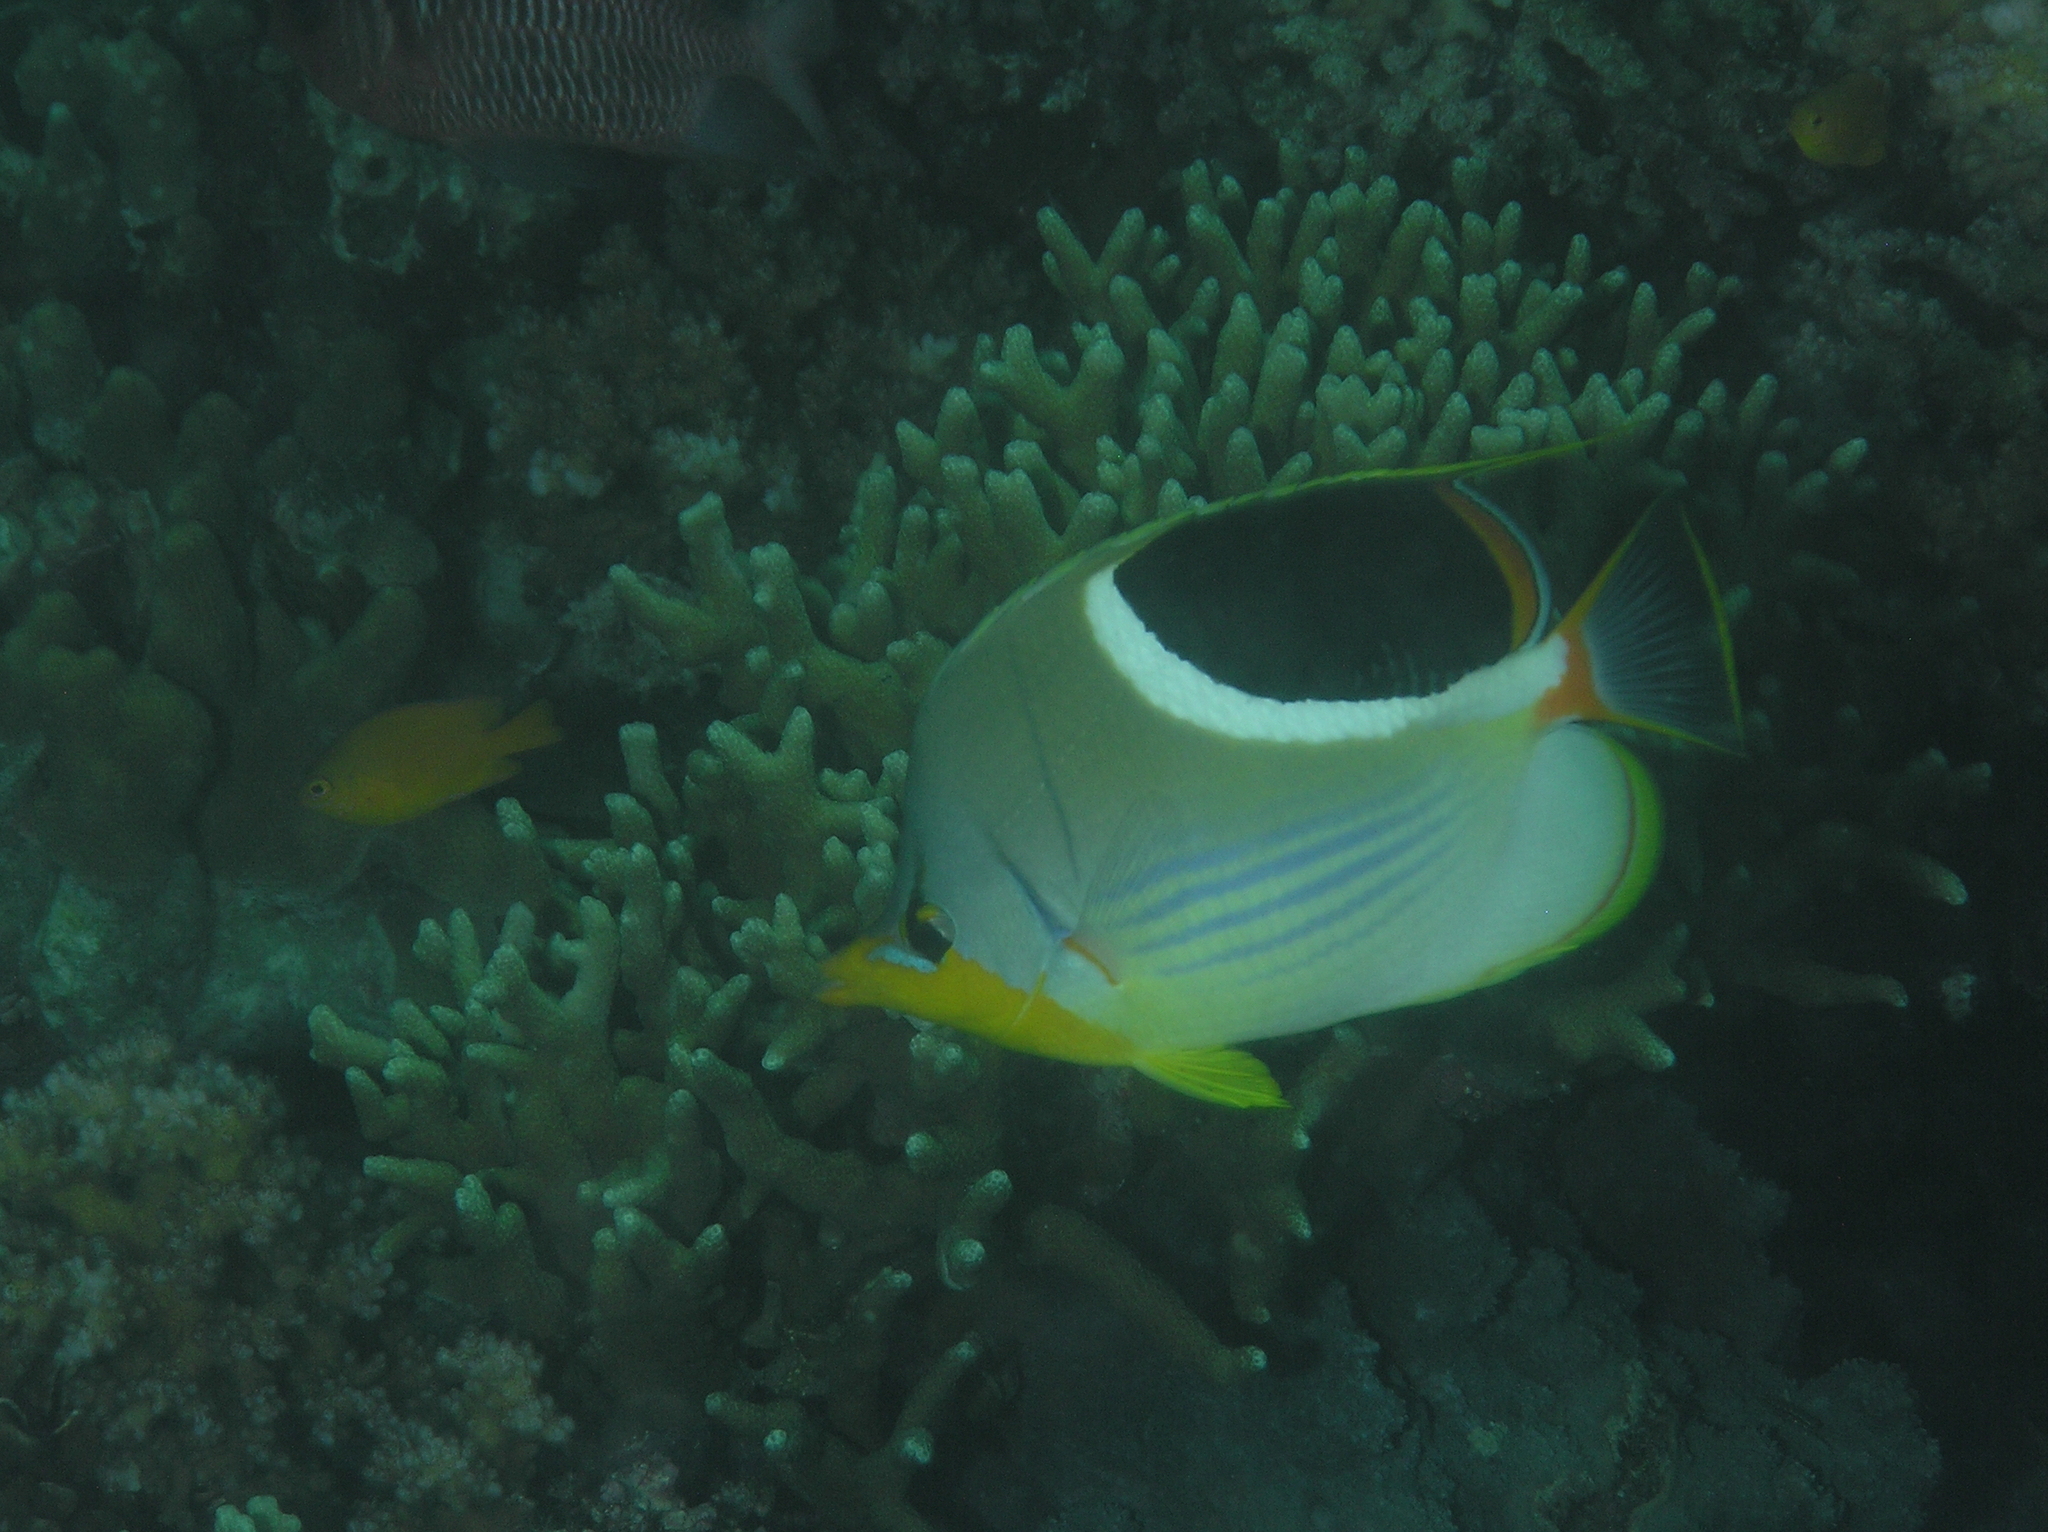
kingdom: Animalia
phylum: Chordata
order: Perciformes
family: Chaetodontidae
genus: Chaetodon
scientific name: Chaetodon ephippium
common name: Saddled butterflyfish
